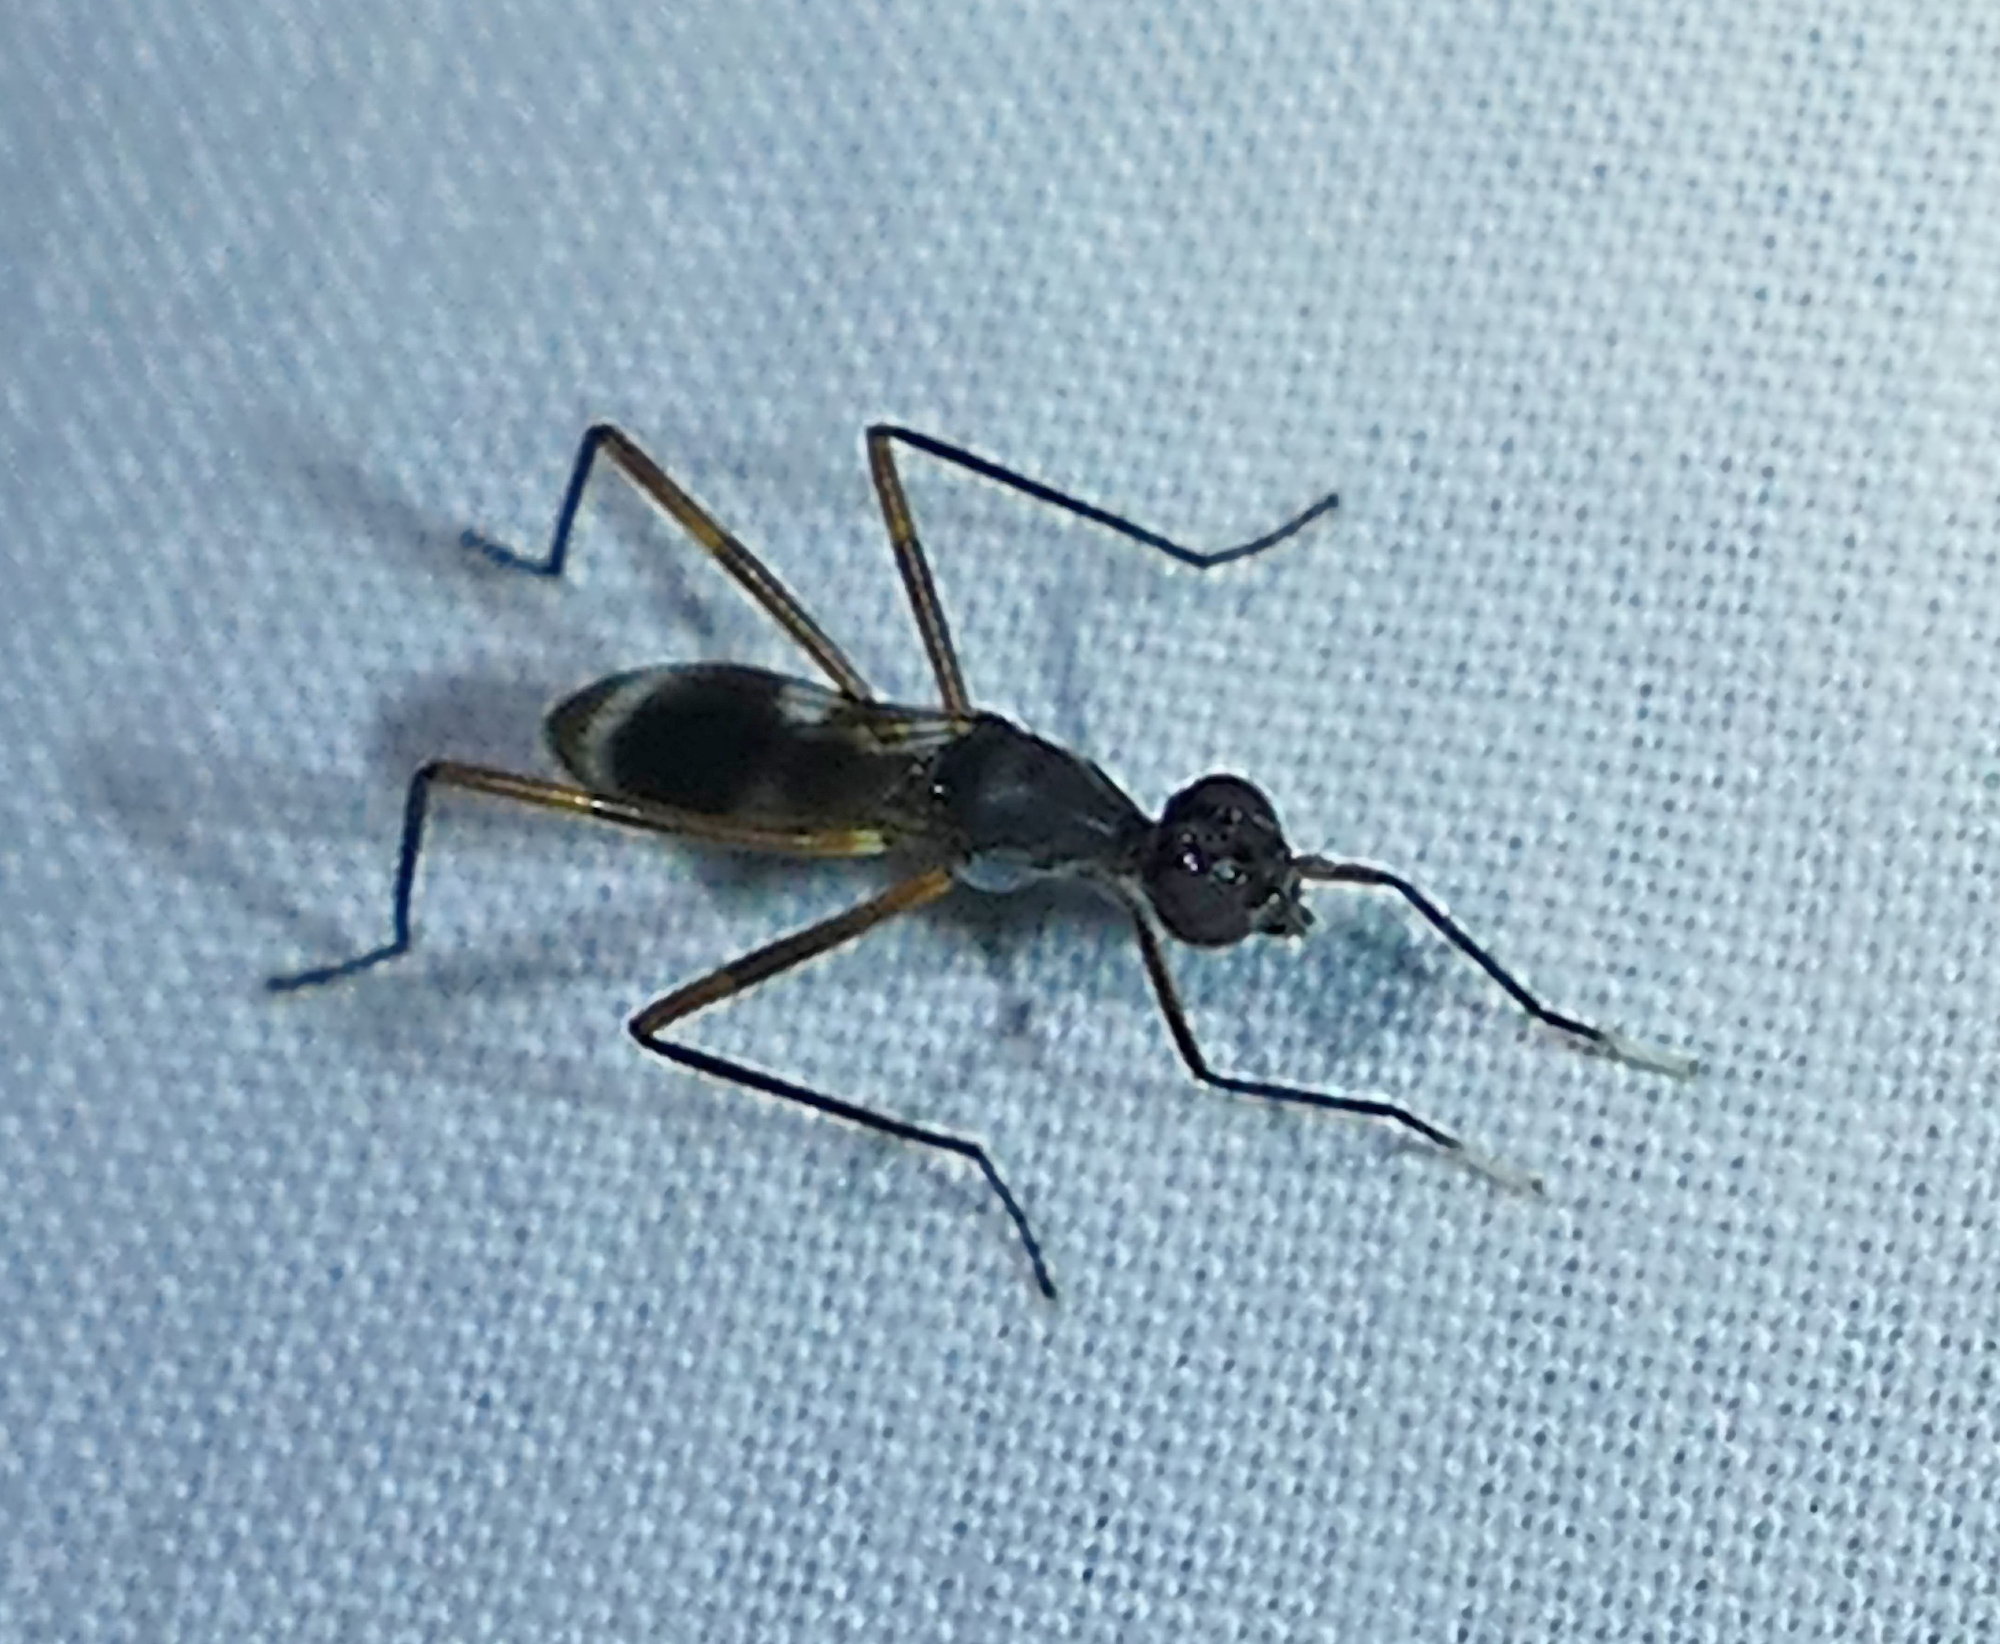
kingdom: Animalia
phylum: Arthropoda
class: Insecta
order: Diptera
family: Micropezidae
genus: Taeniaptera
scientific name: Taeniaptera trivittata
